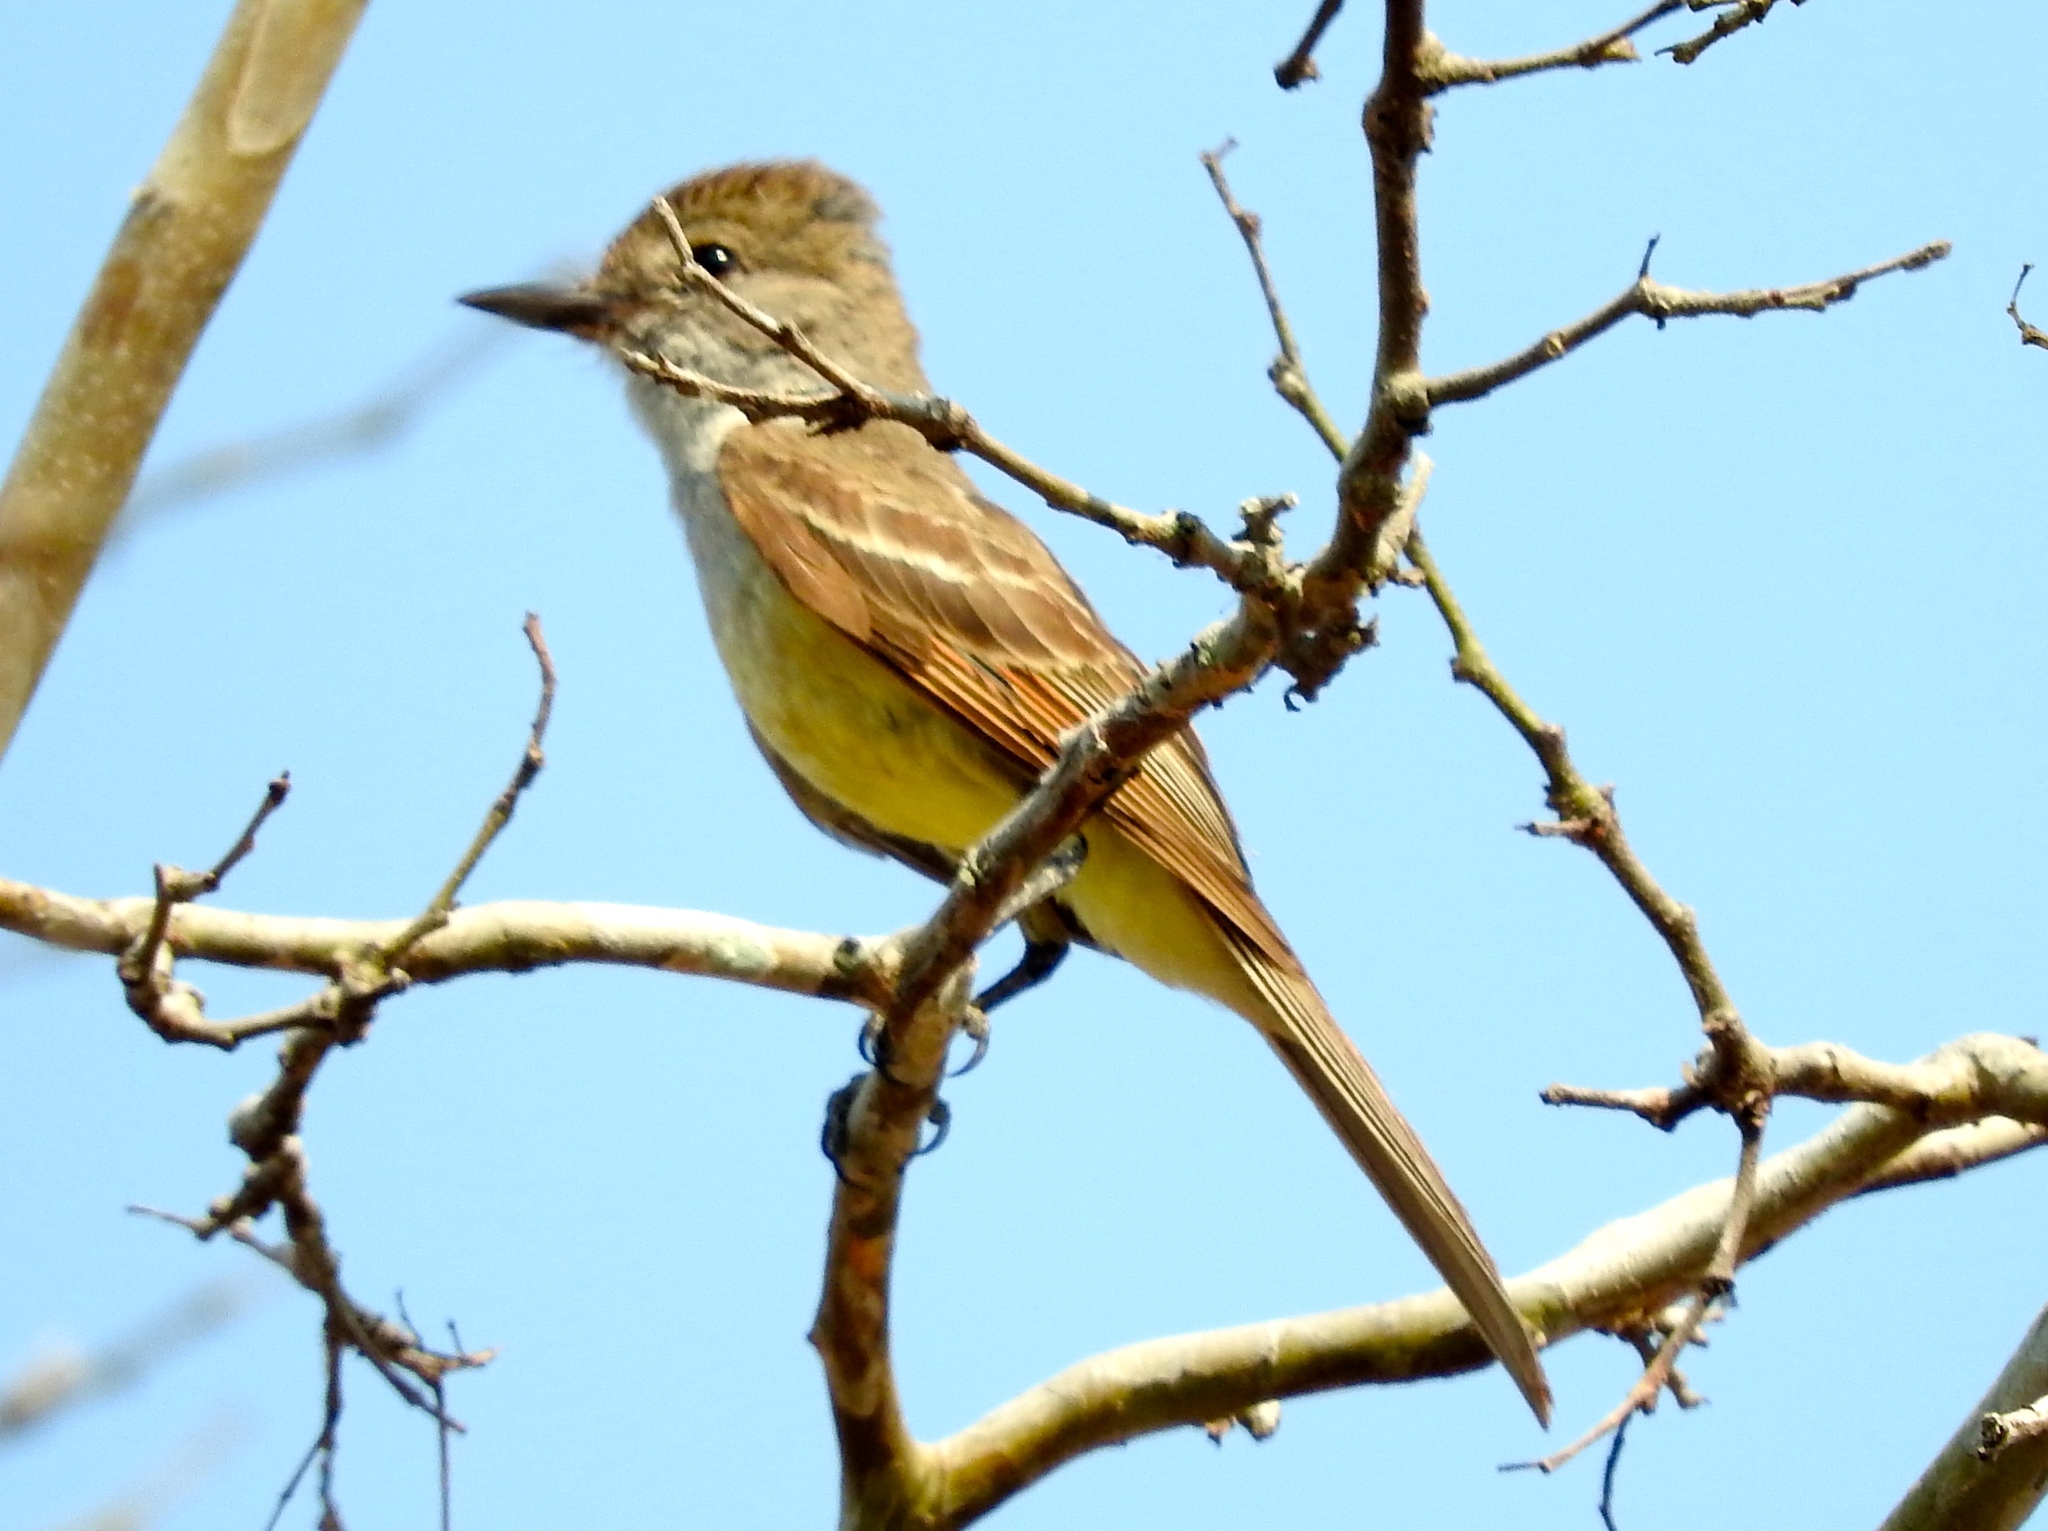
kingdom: Animalia
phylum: Chordata
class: Aves
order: Passeriformes
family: Tyrannidae
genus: Myiarchus
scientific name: Myiarchus
